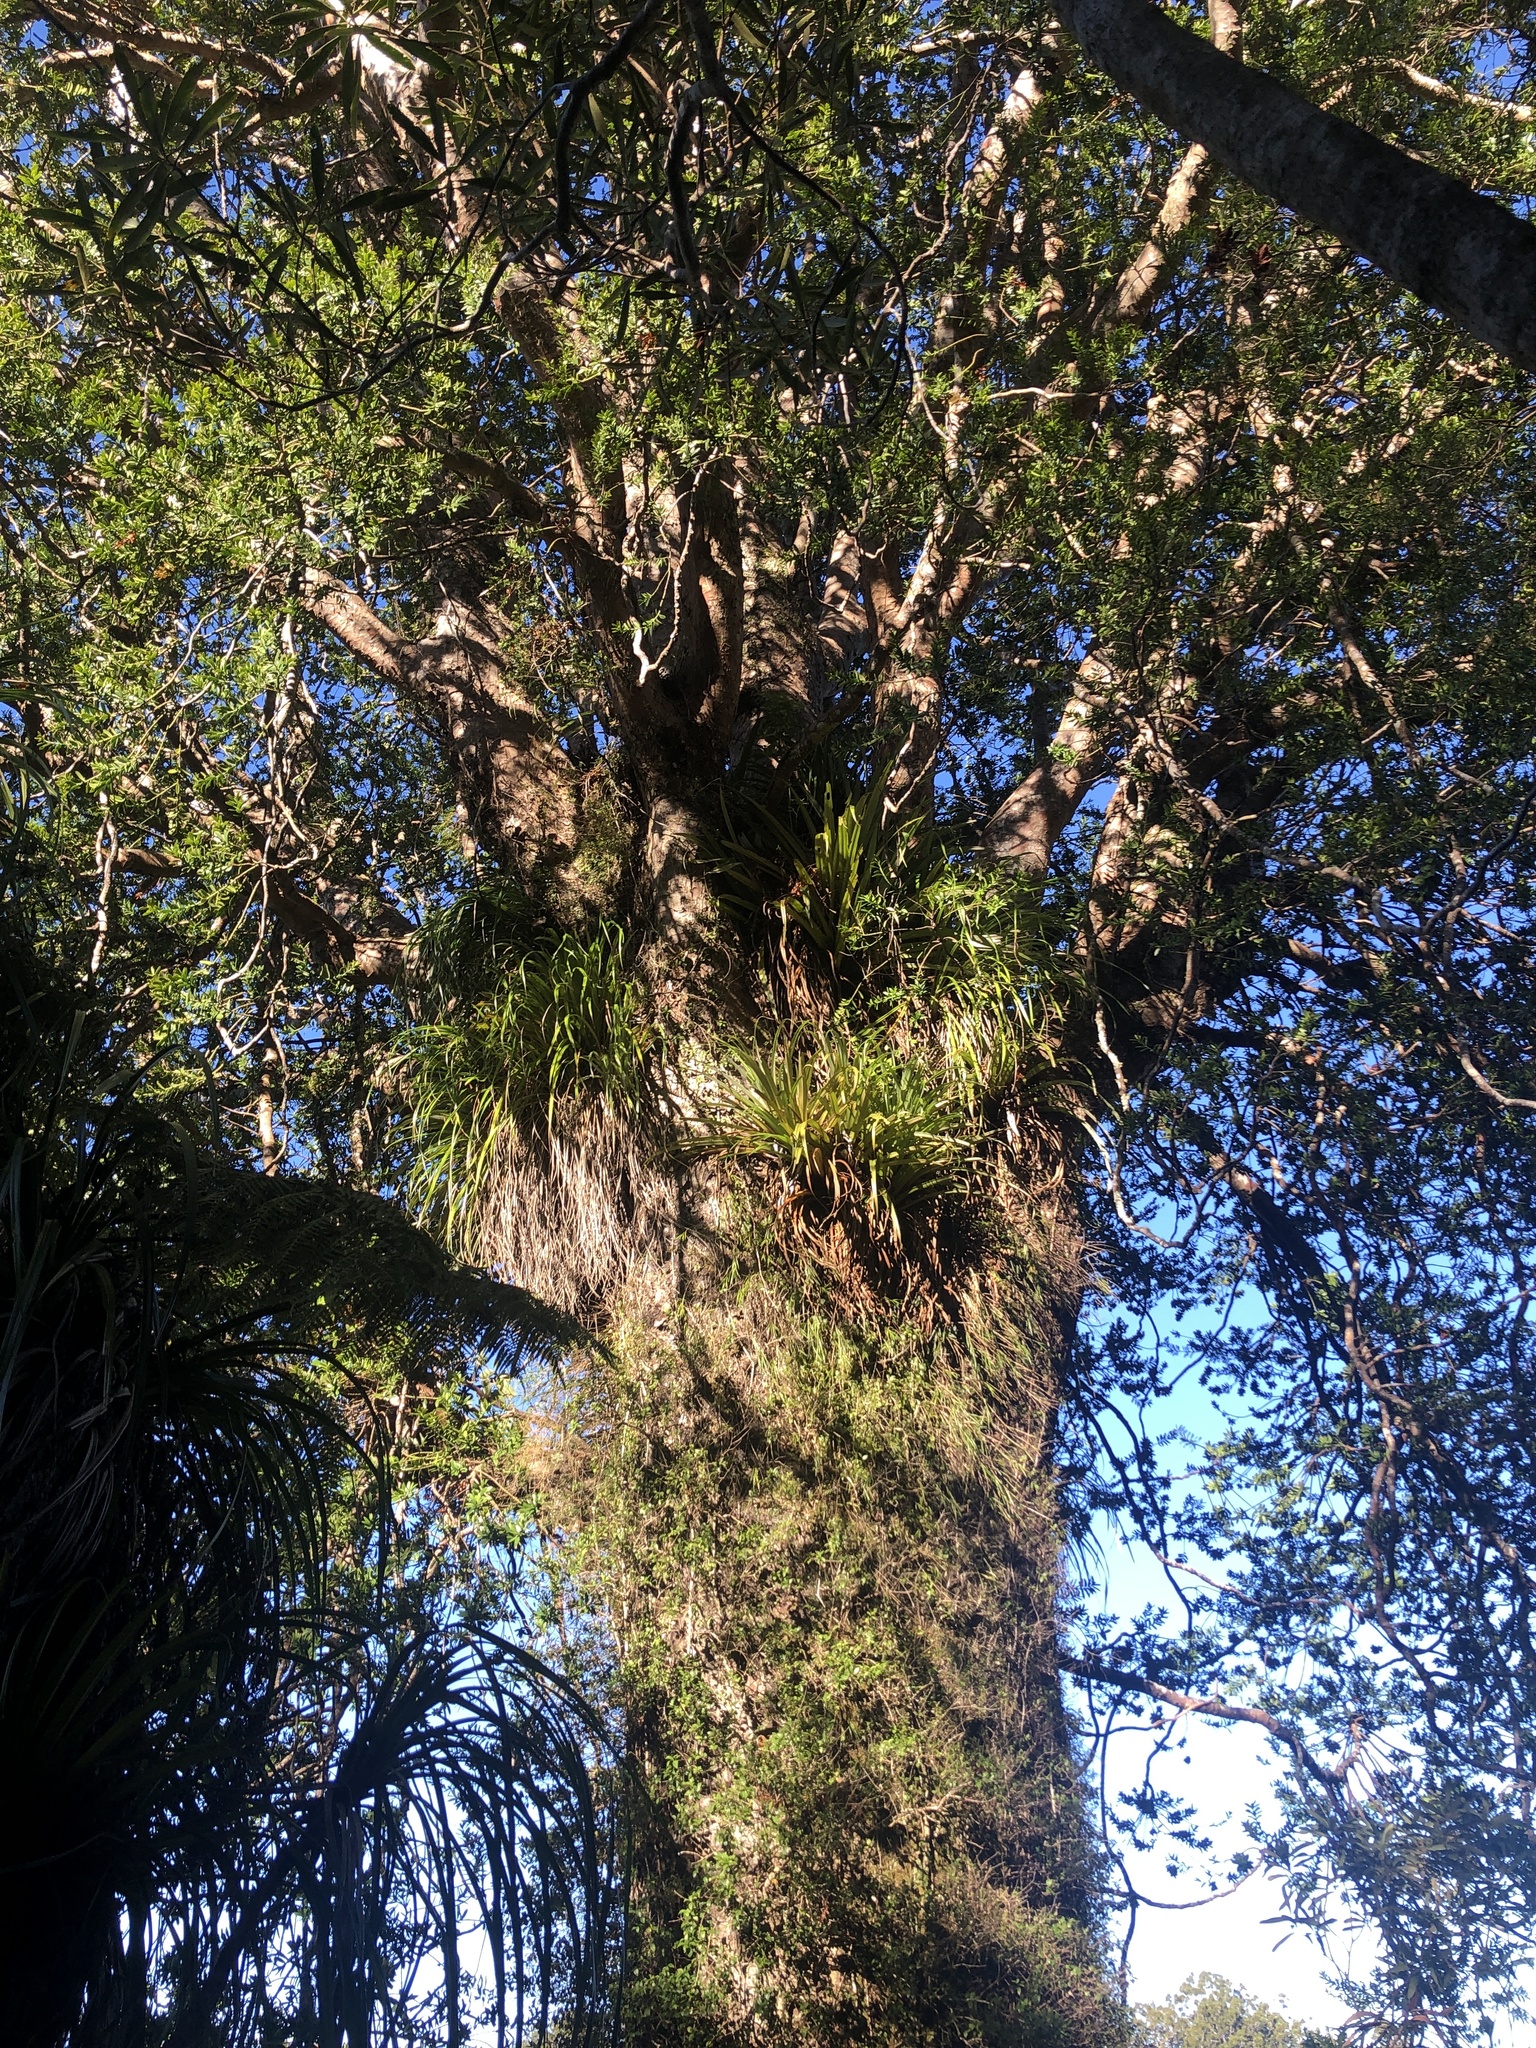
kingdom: Plantae
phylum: Tracheophyta
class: Pinopsida
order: Pinales
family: Araucariaceae
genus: Agathis
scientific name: Agathis australis
